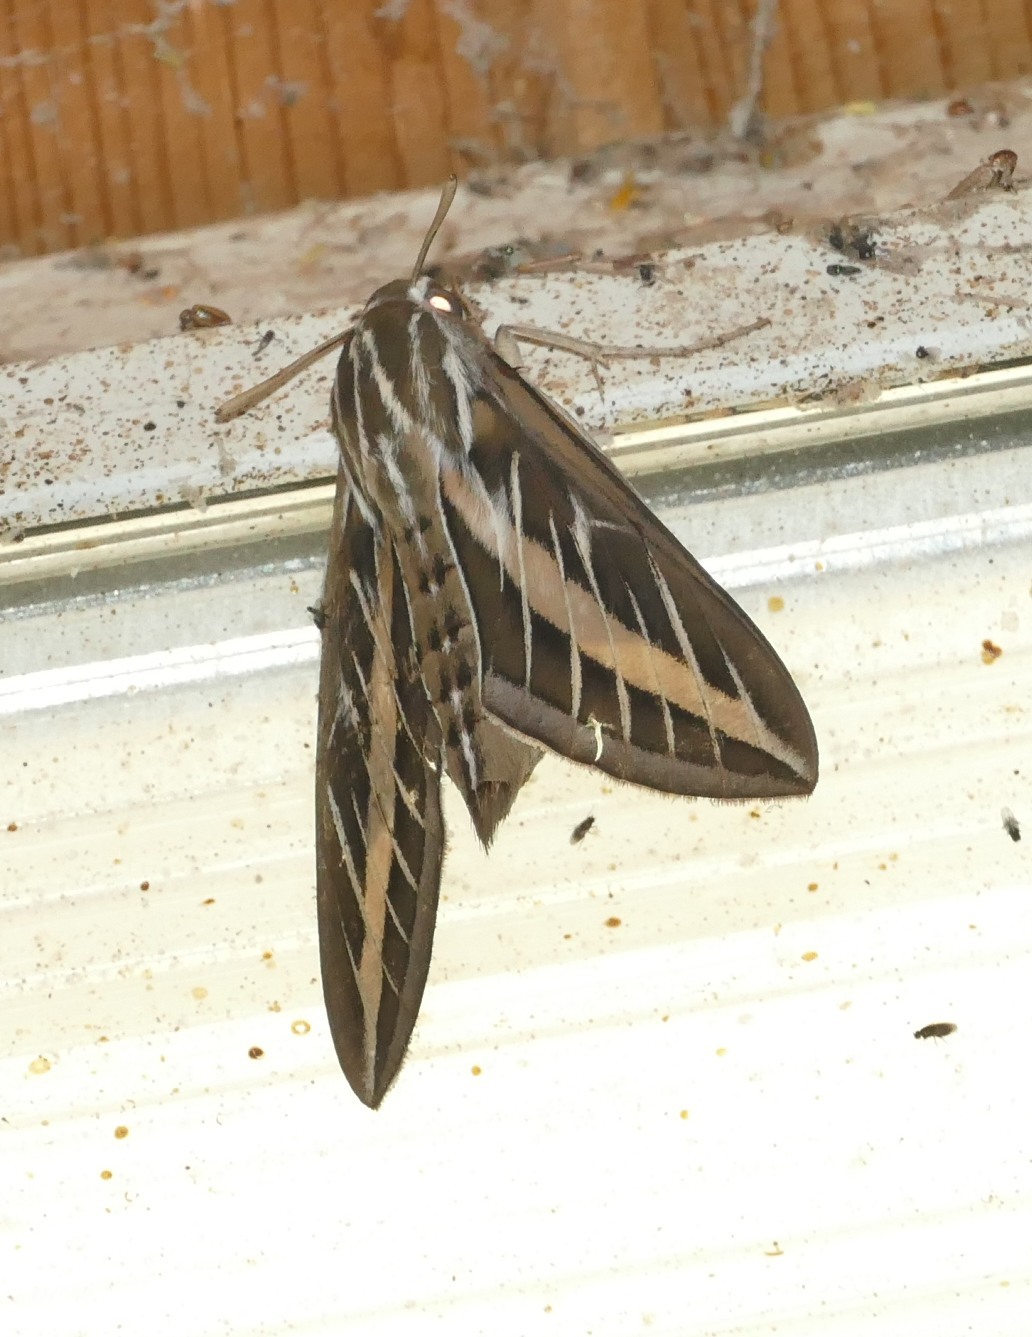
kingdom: Animalia
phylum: Arthropoda
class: Insecta
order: Lepidoptera
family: Sphingidae
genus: Hyles
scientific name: Hyles lineata
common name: White-lined sphinx
